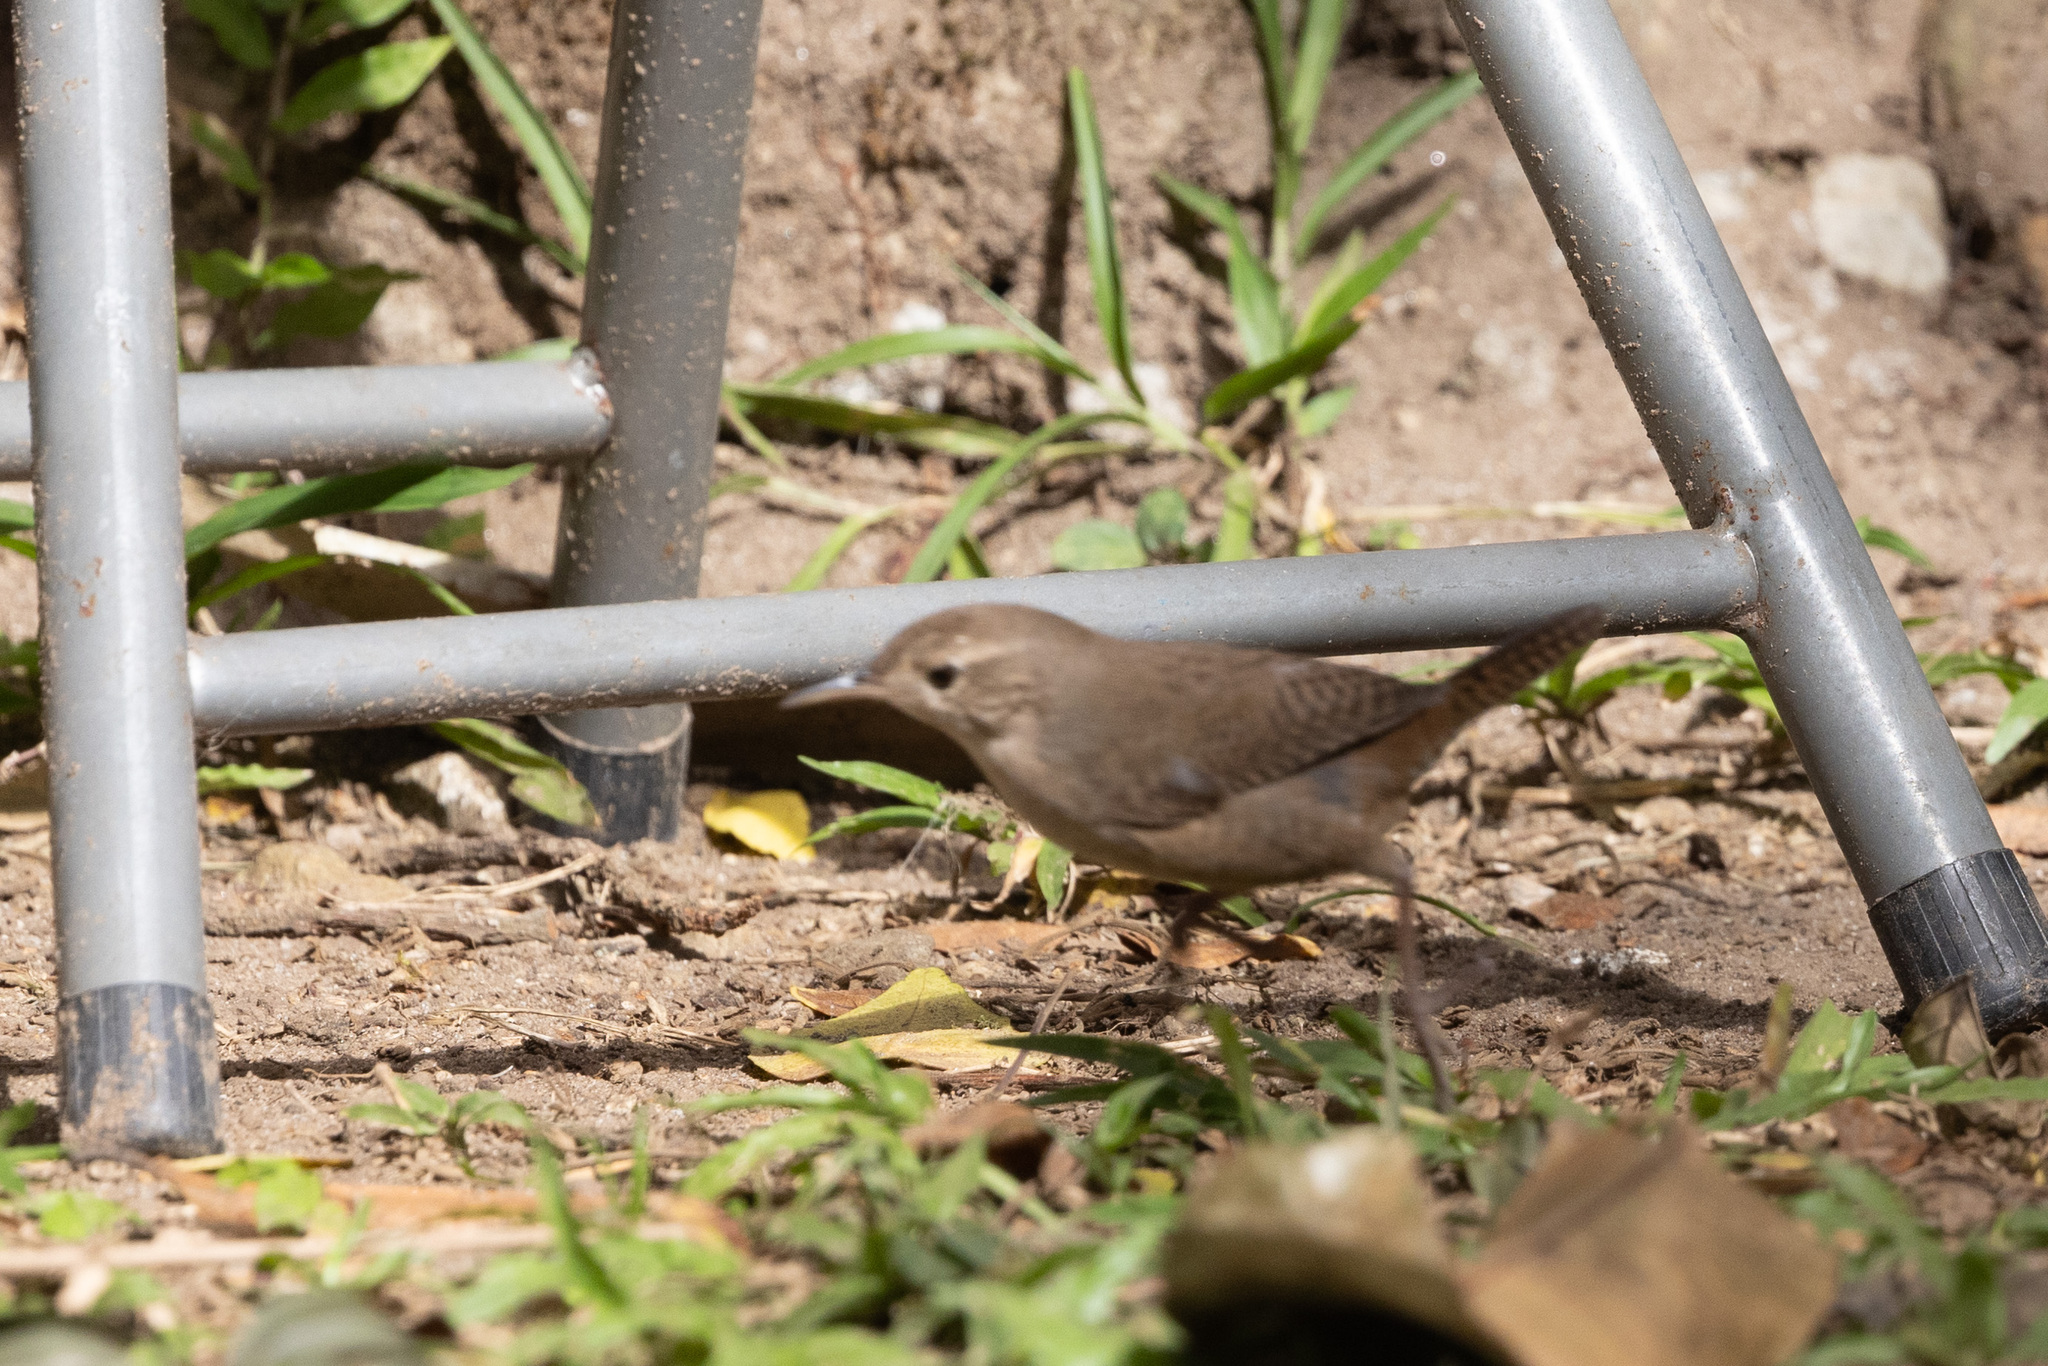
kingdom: Animalia
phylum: Chordata
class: Aves
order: Passeriformes
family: Troglodytidae
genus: Troglodytes
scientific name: Troglodytes aedon
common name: House wren
